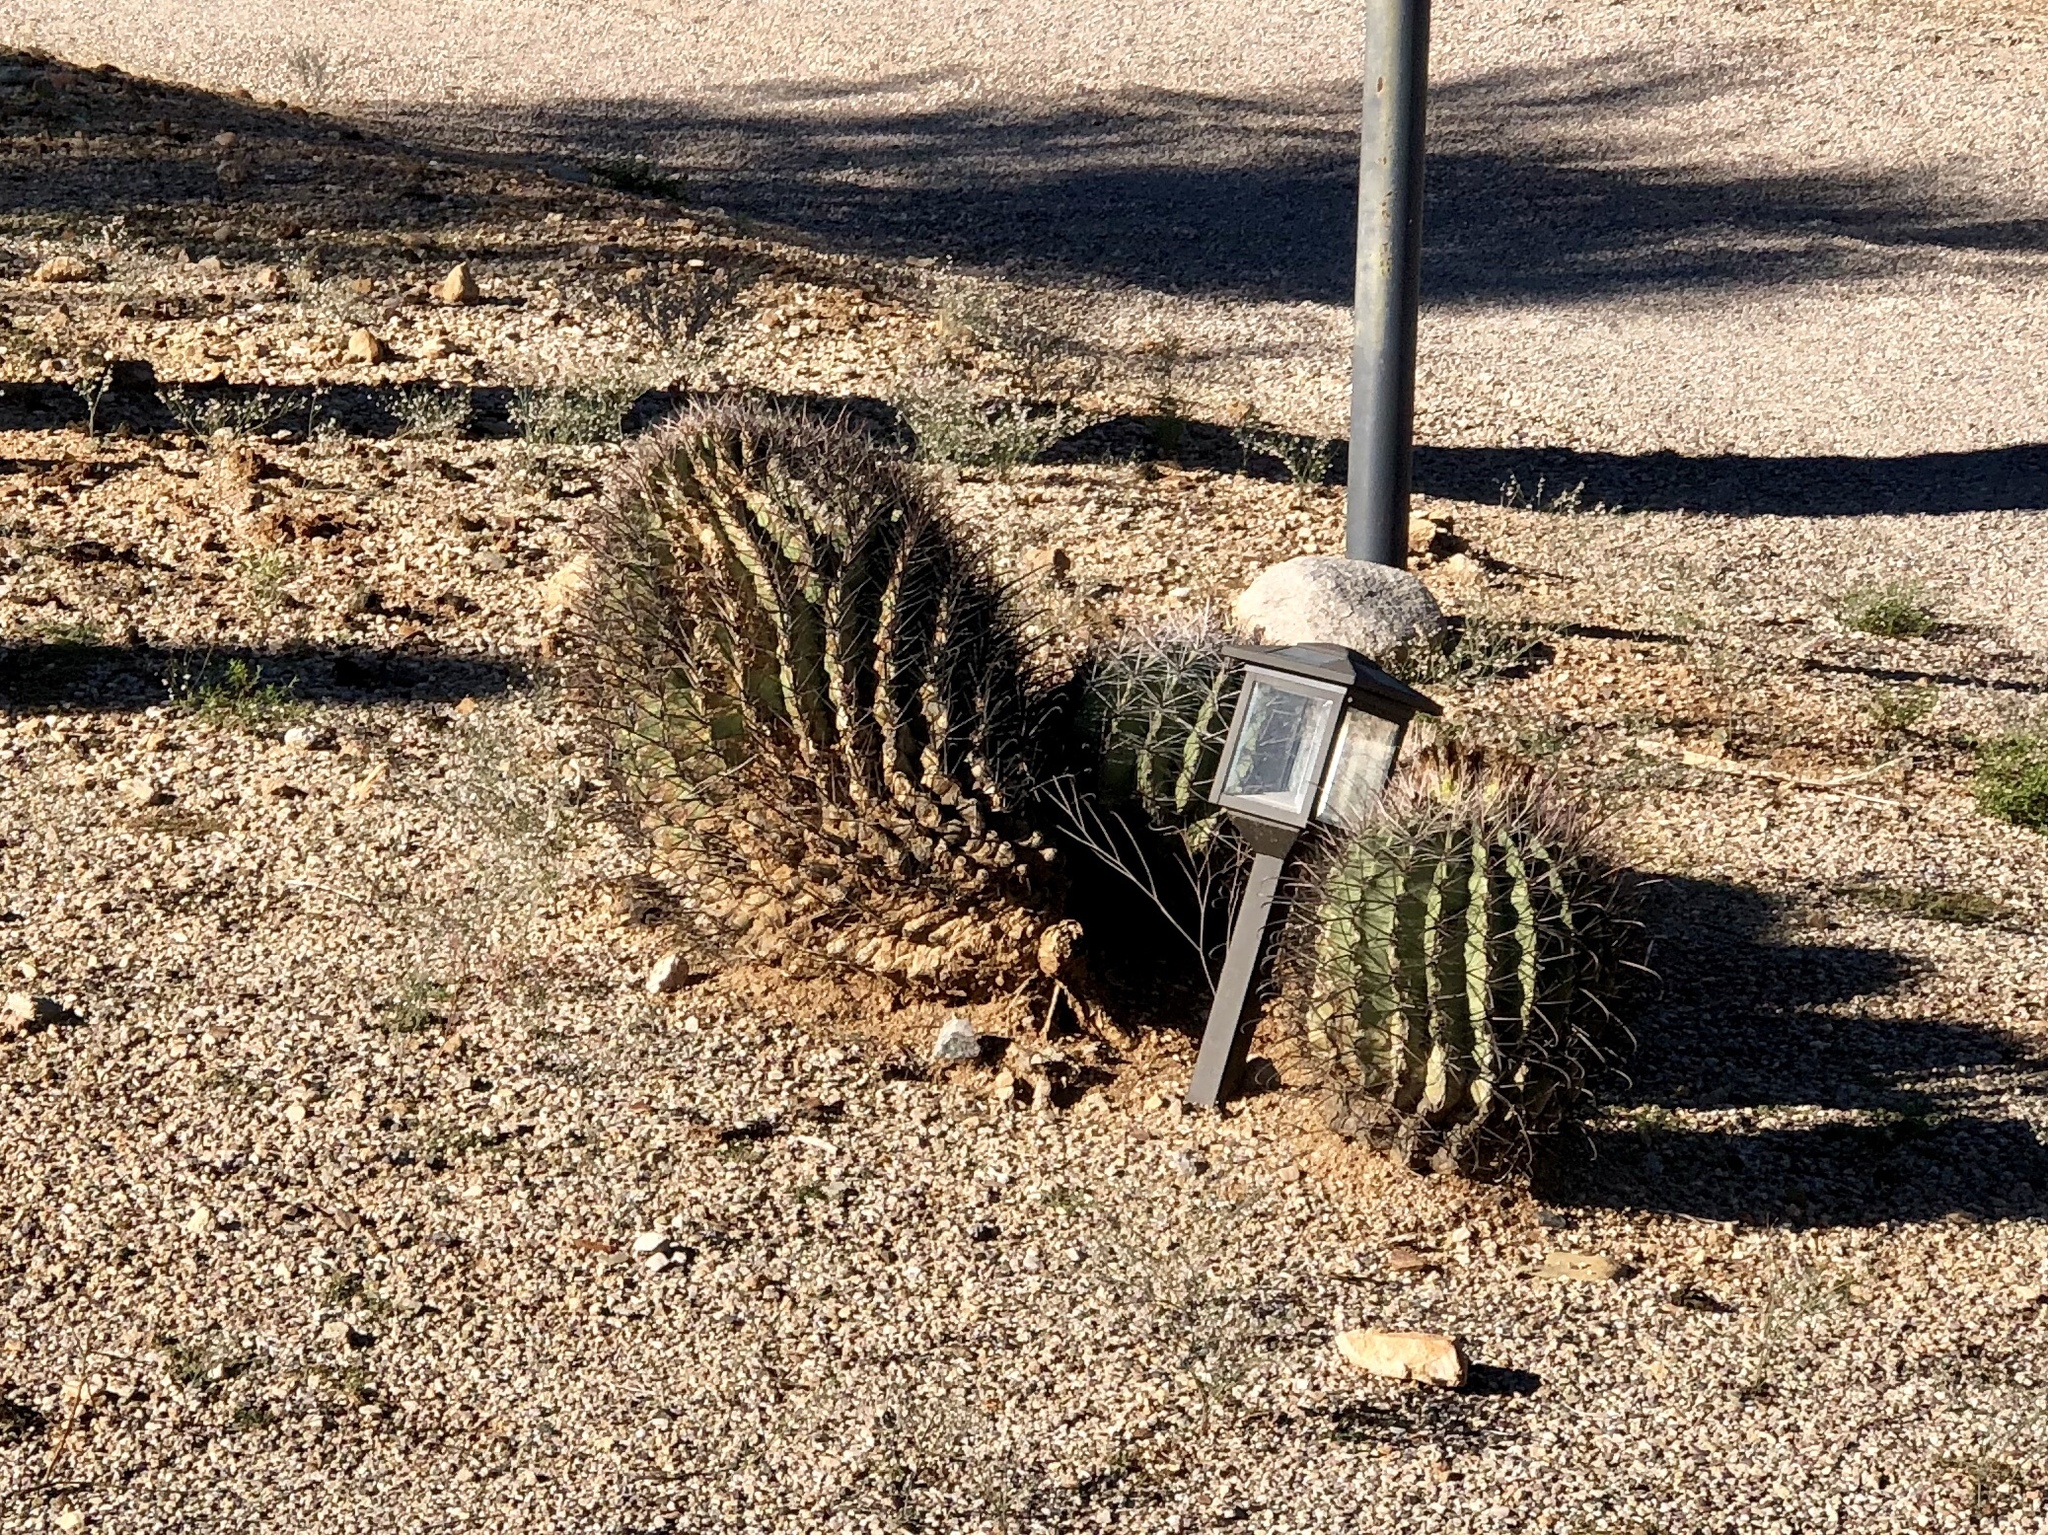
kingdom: Plantae
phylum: Tracheophyta
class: Magnoliopsida
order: Caryophyllales
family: Cactaceae
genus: Ferocactus
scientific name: Ferocactus wislizeni
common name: Candy barrel cactus
